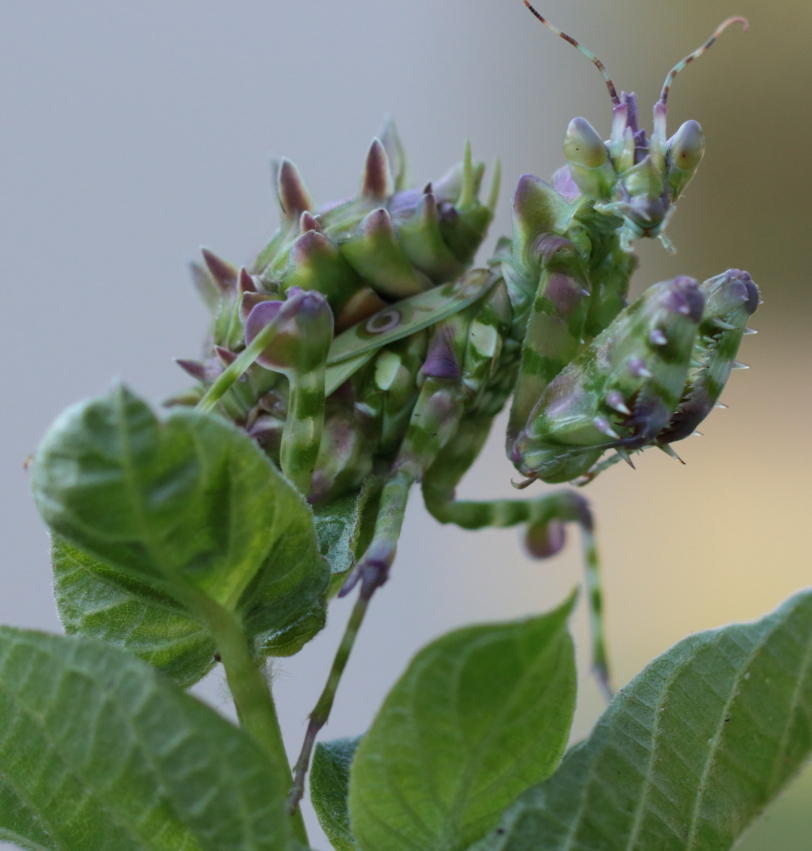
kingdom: Animalia
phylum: Arthropoda
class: Insecta
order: Mantodea
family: Hymenopodidae
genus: Pseudocreobotra
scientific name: Pseudocreobotra wahlbergi
